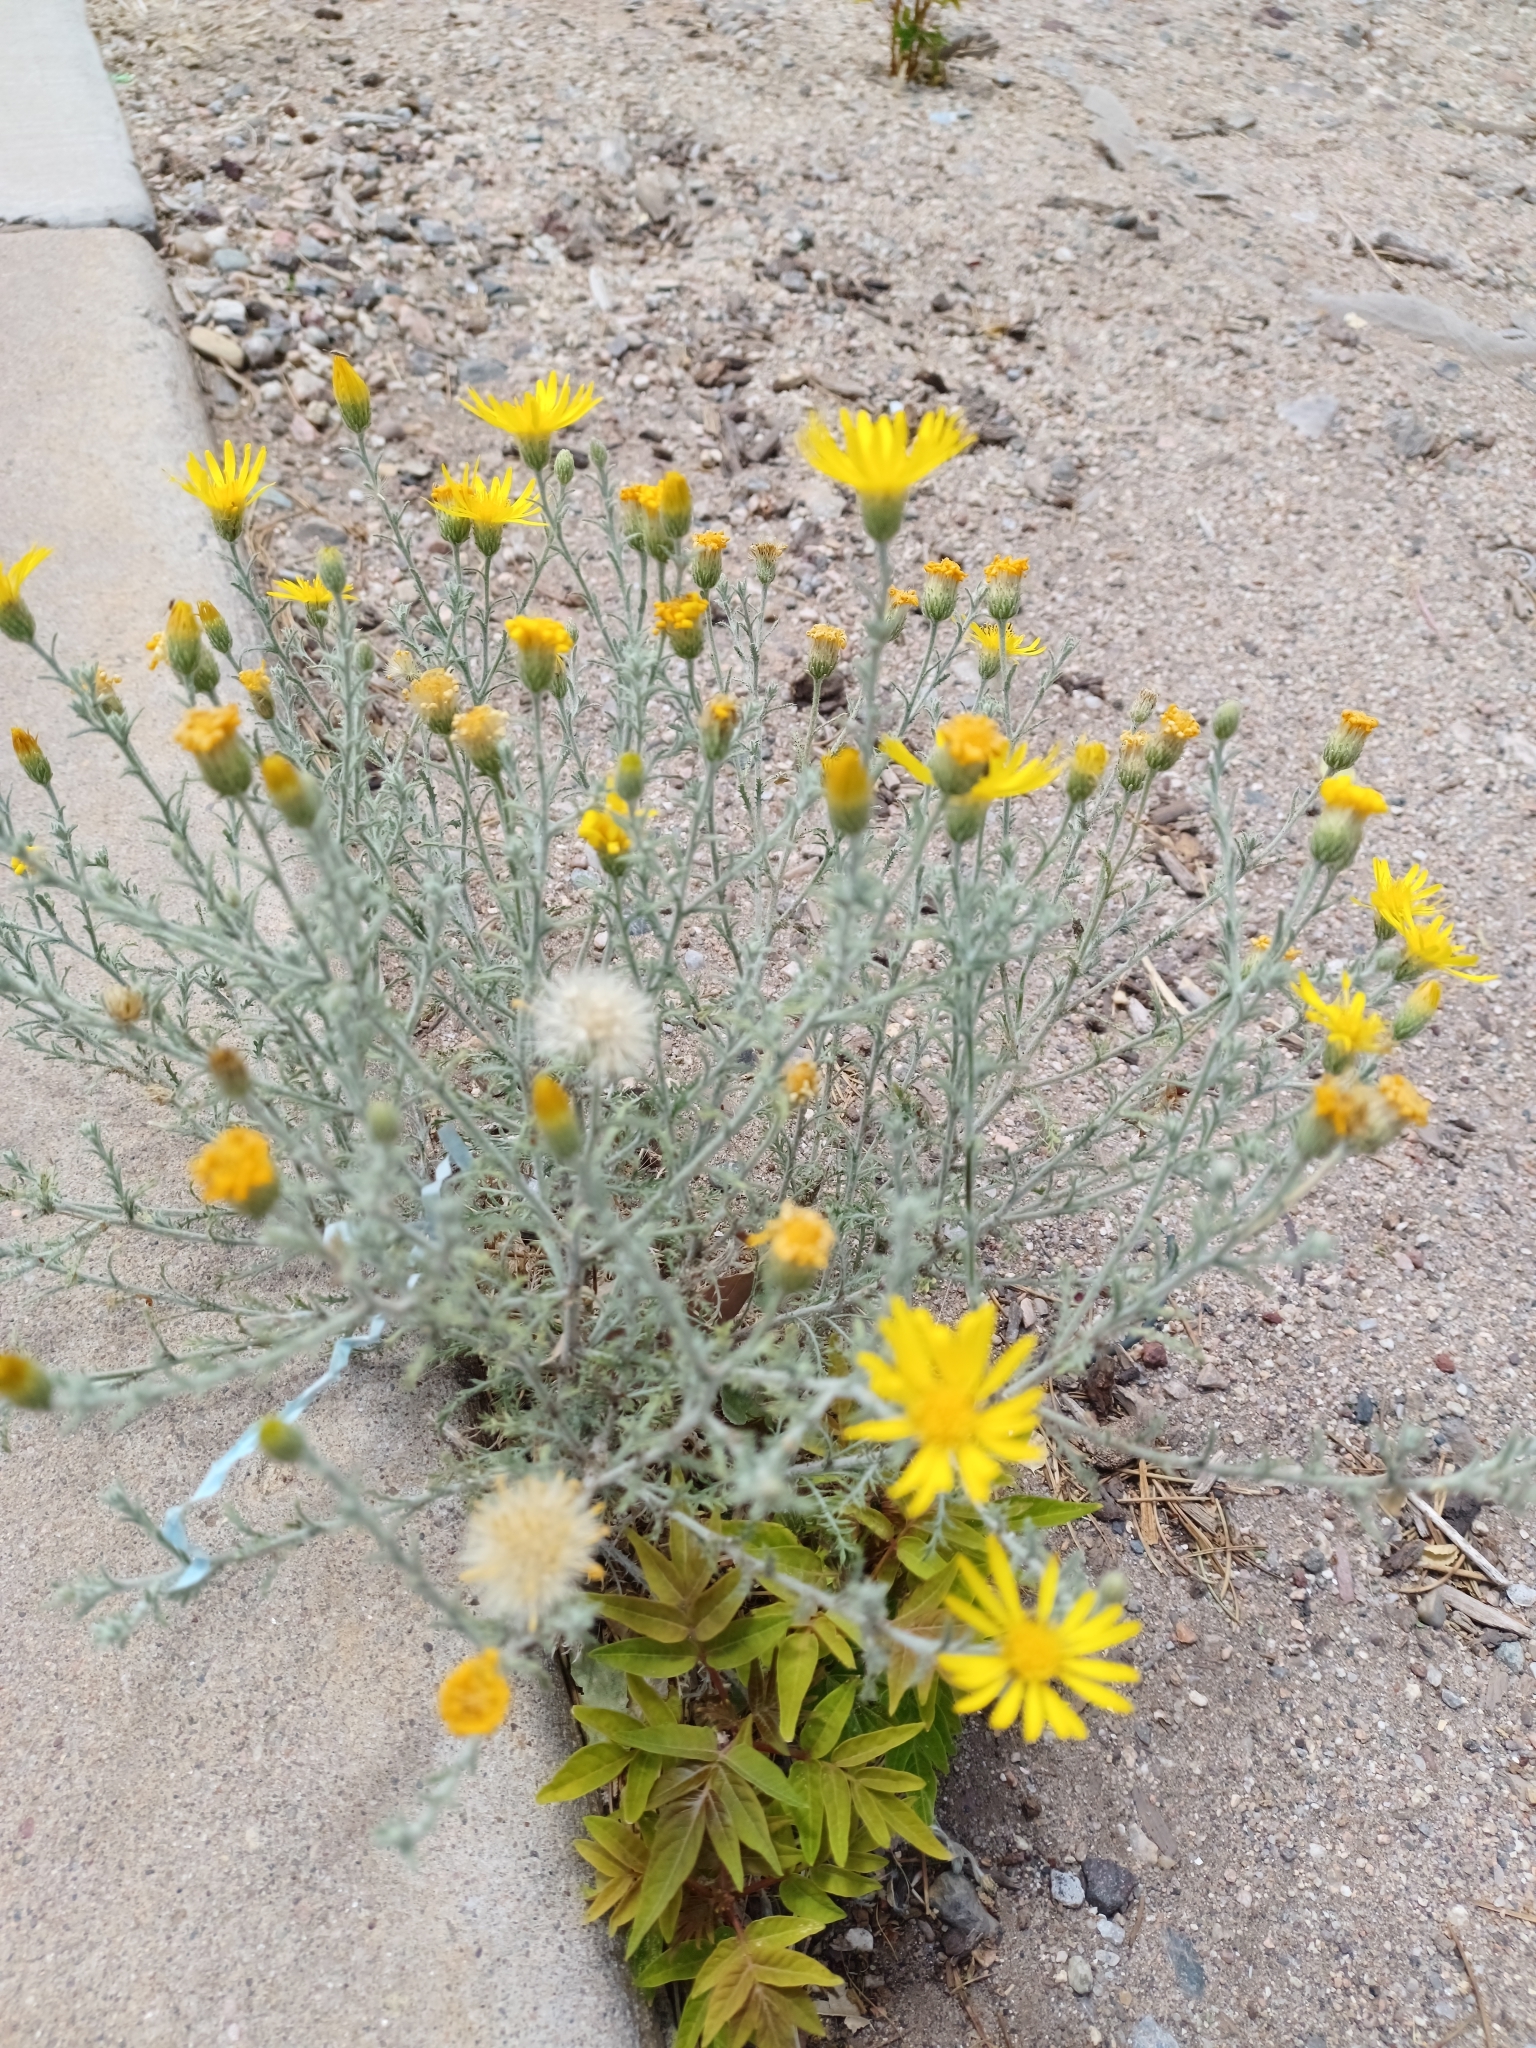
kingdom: Plantae
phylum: Tracheophyta
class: Magnoliopsida
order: Asterales
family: Asteraceae
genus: Xanthisma
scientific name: Xanthisma spinulosum
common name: Spiny goldenweed
